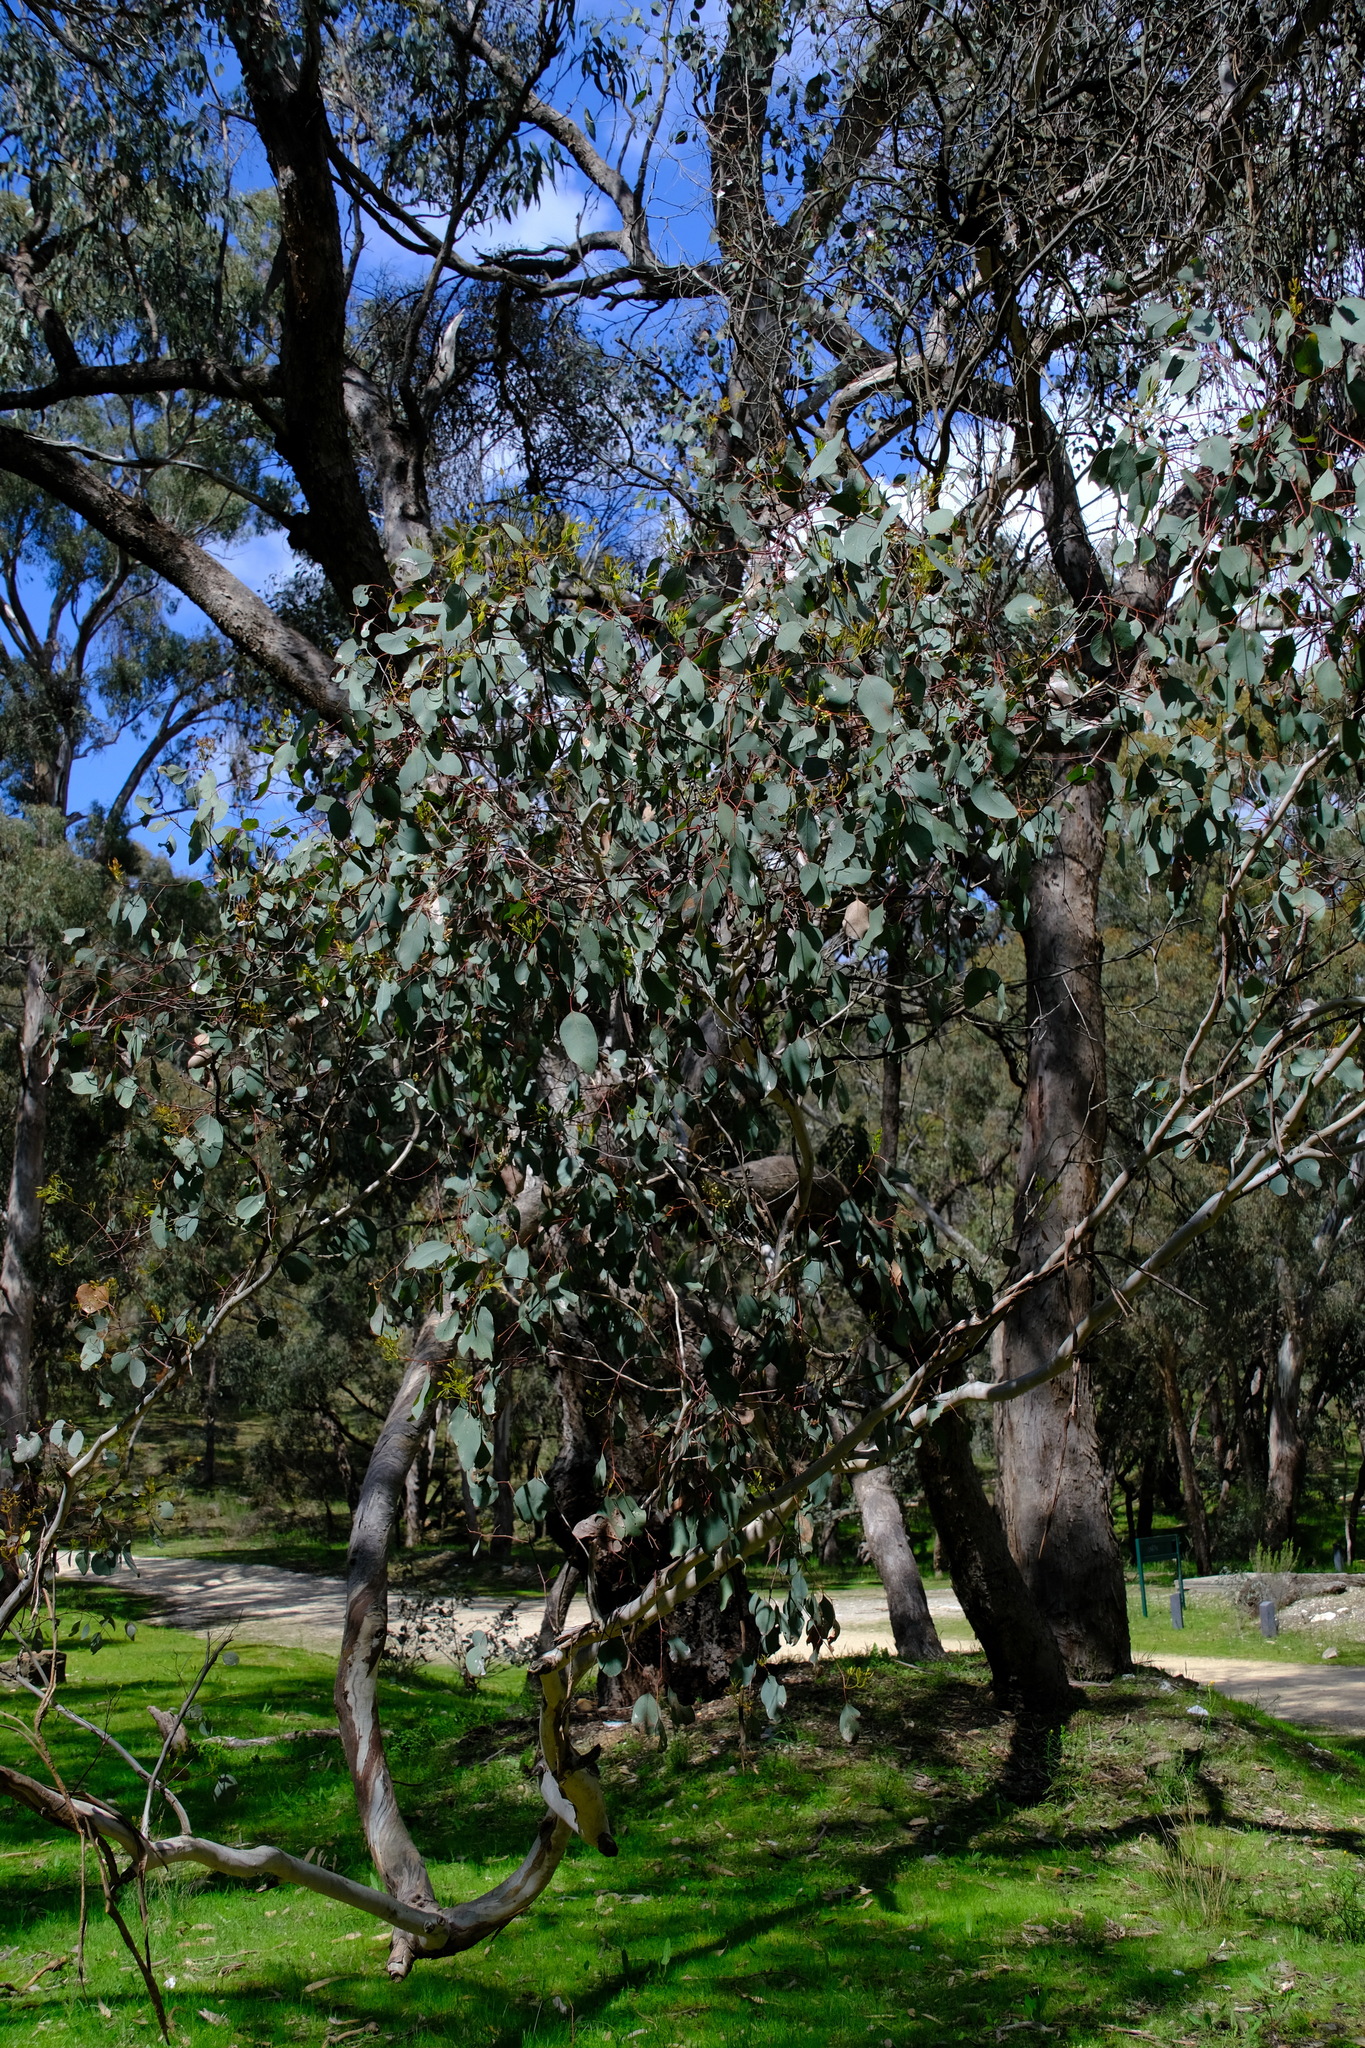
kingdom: Plantae
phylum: Tracheophyta
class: Magnoliopsida
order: Myrtales
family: Myrtaceae
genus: Eucalyptus
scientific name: Eucalyptus polyanthemos
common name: Red-box
